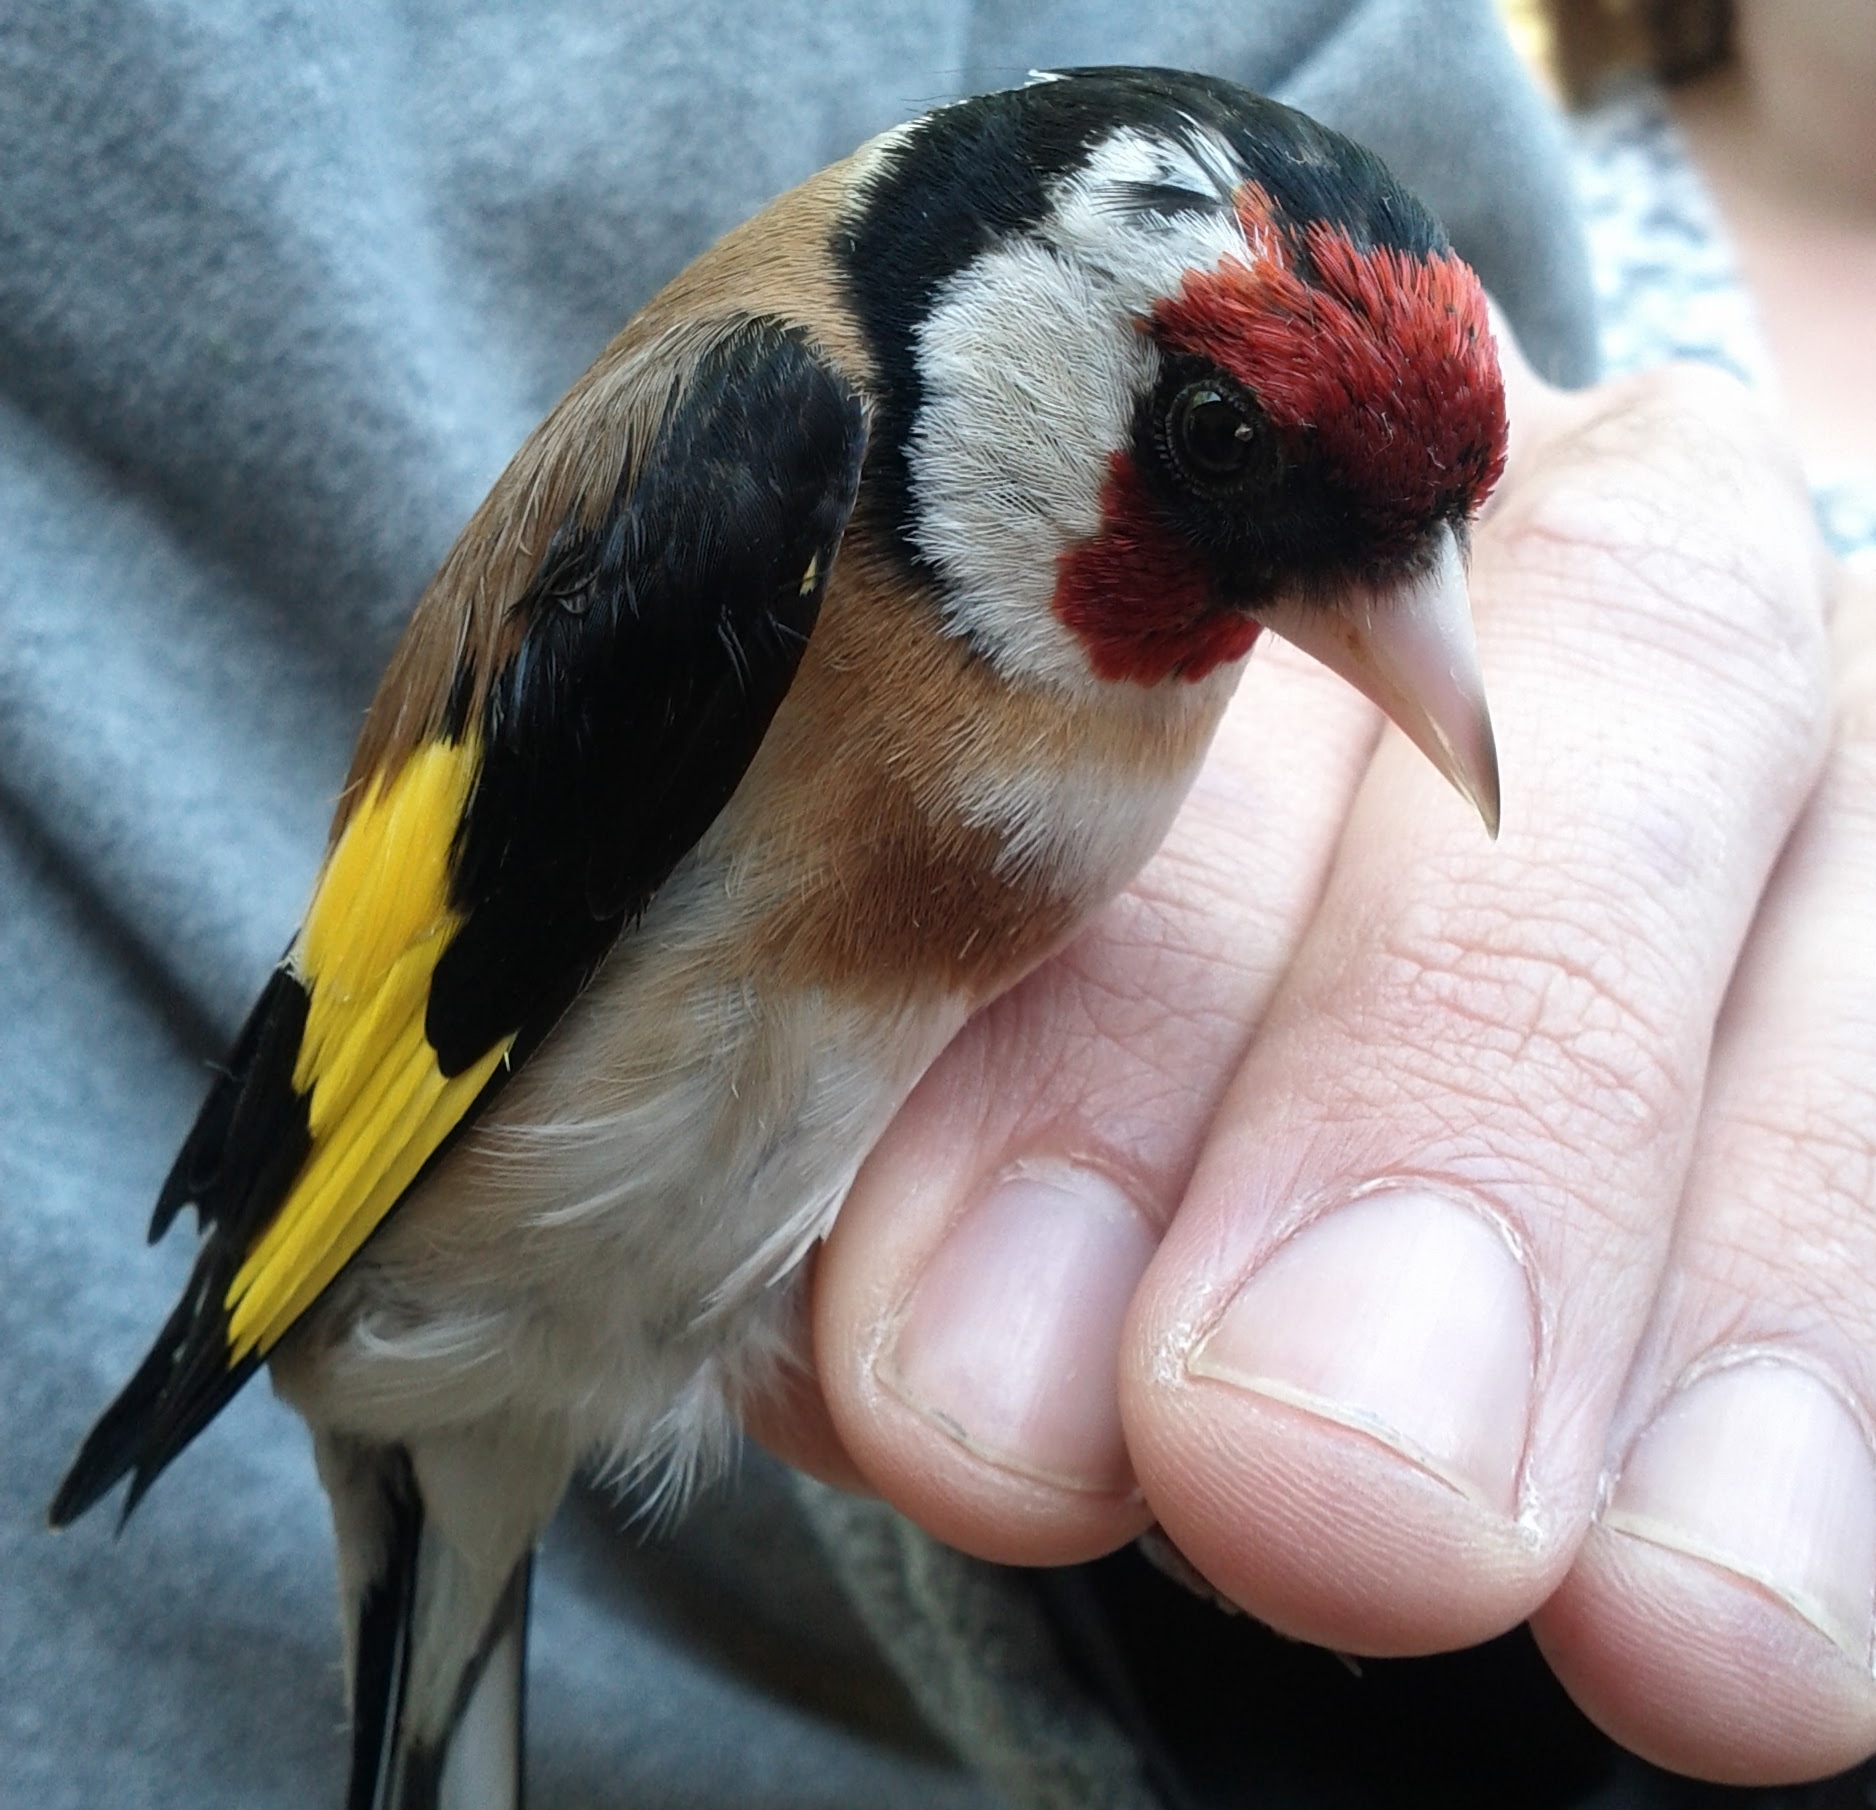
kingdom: Animalia
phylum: Chordata
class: Aves
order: Passeriformes
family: Fringillidae
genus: Carduelis
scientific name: Carduelis carduelis
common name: European goldfinch
